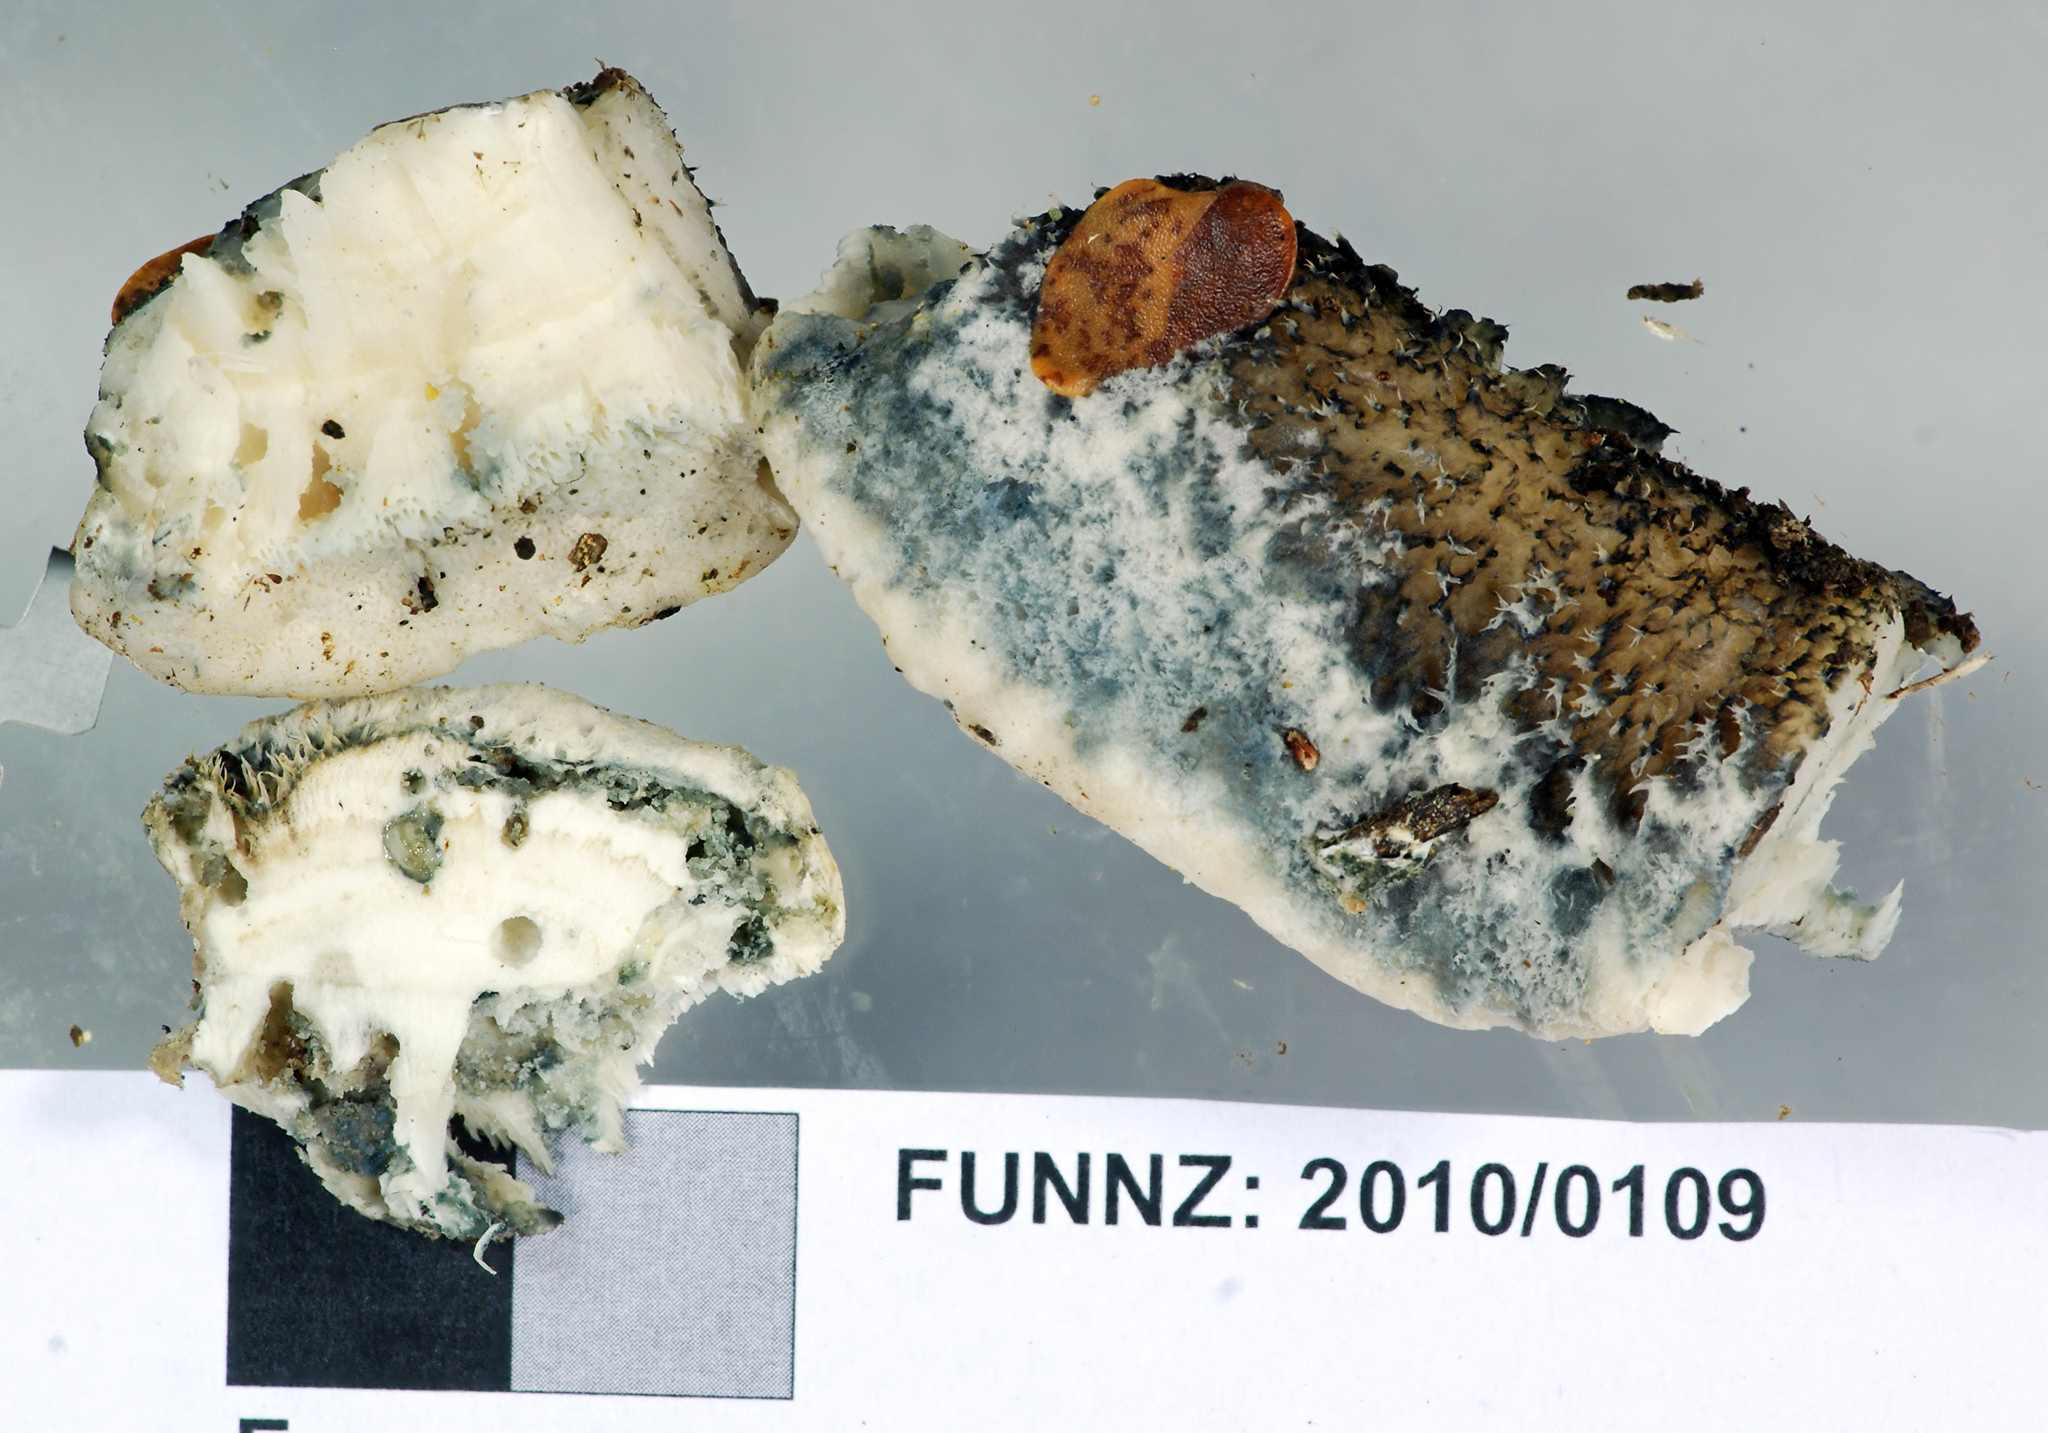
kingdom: Fungi
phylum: Basidiomycota
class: Agaricomycetes
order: Polyporales
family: Polyporaceae
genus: Cyanosporus
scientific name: Cyanosporus
